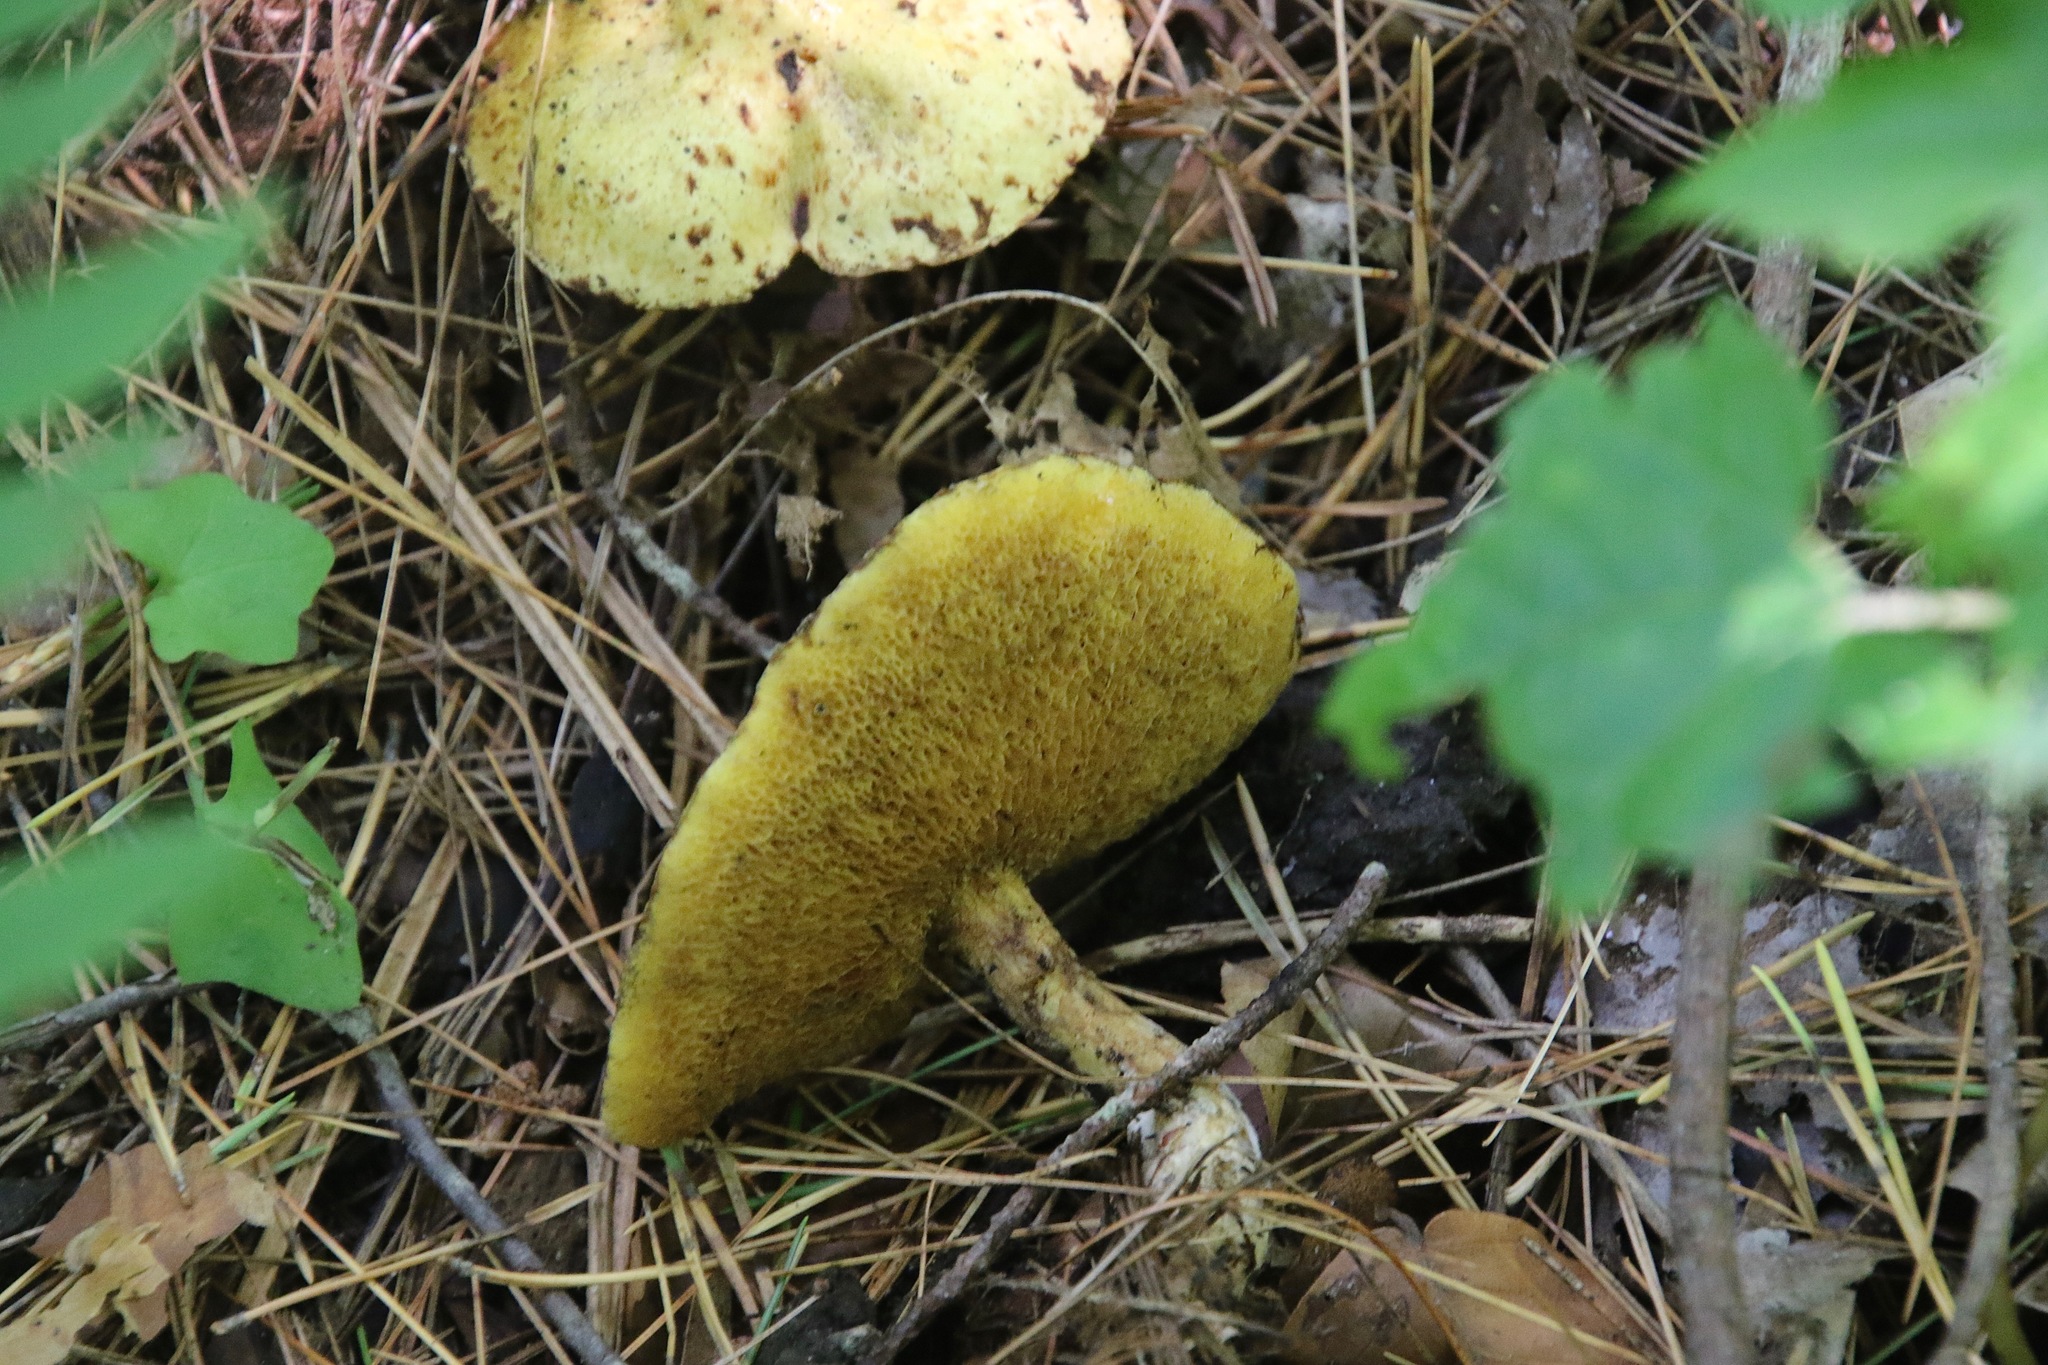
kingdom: Fungi
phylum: Basidiomycota
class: Agaricomycetes
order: Boletales
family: Suillaceae
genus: Suillus
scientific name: Suillus americanus
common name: Chicken fat mushroom
